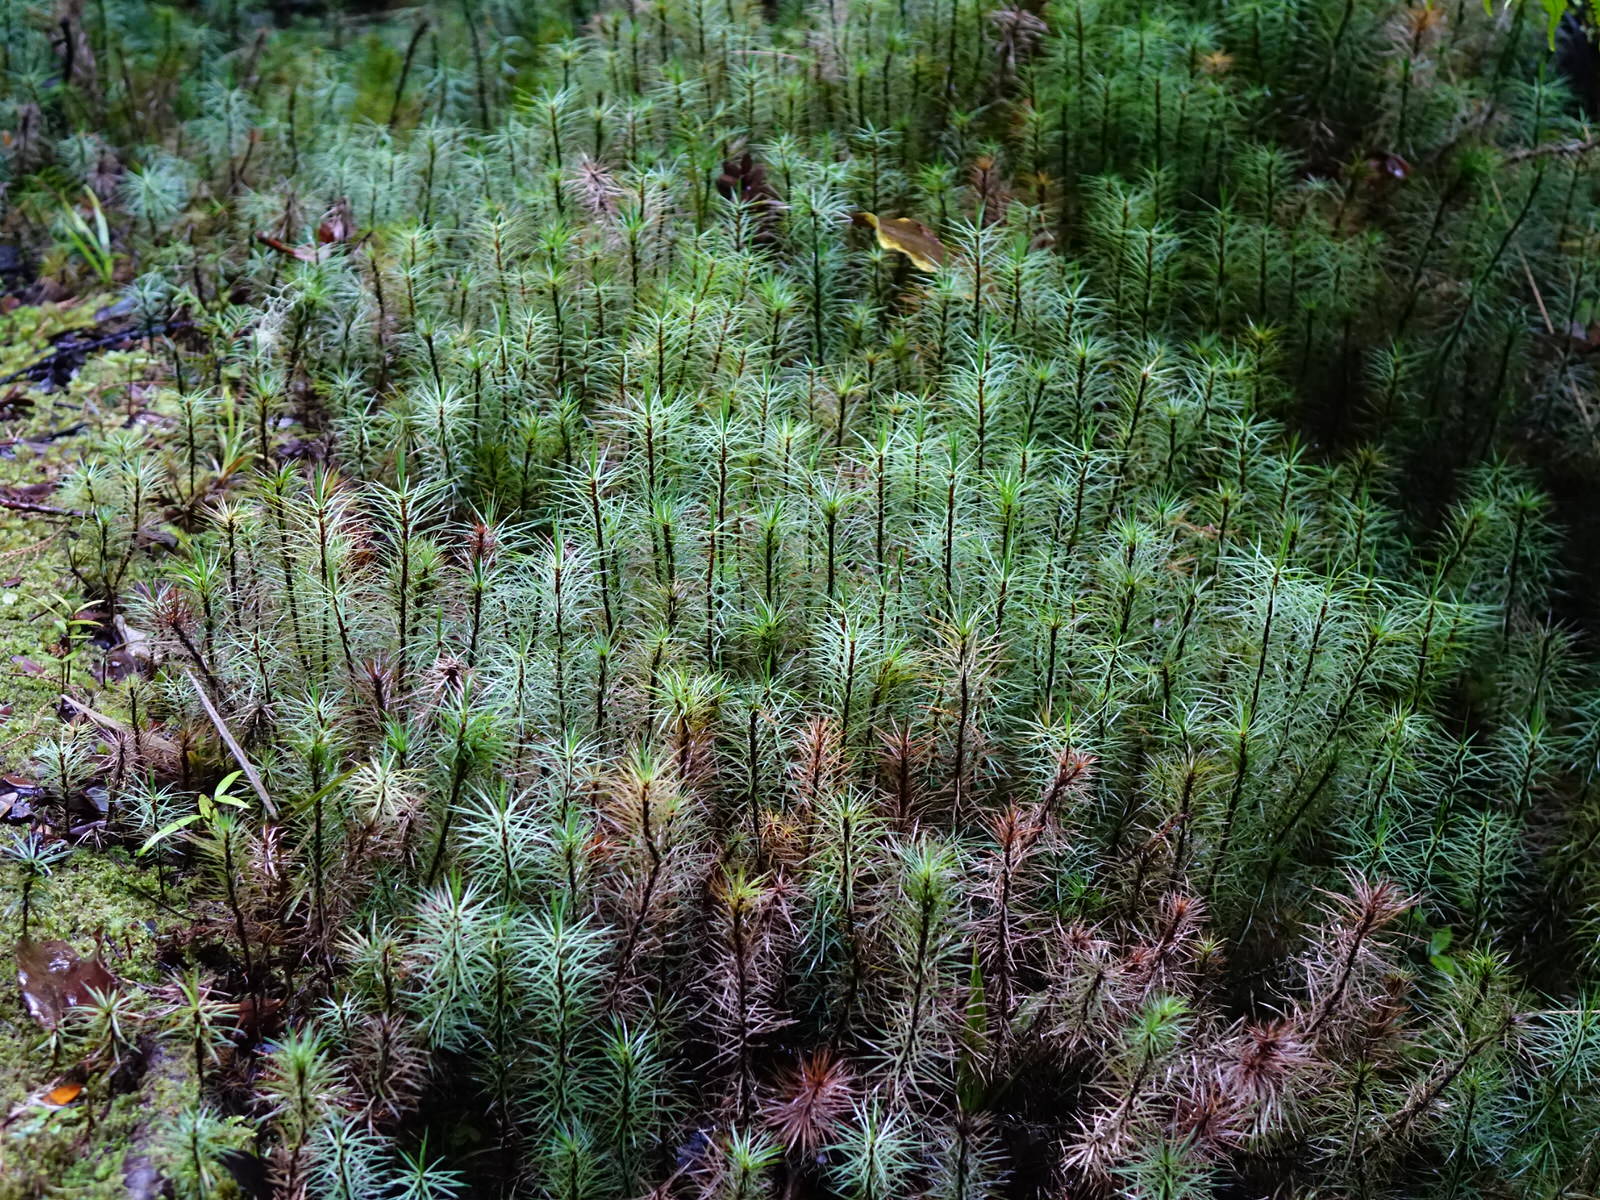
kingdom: Plantae
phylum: Bryophyta
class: Polytrichopsida
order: Polytrichales
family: Polytrichaceae
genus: Dawsonia
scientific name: Dawsonia superba
